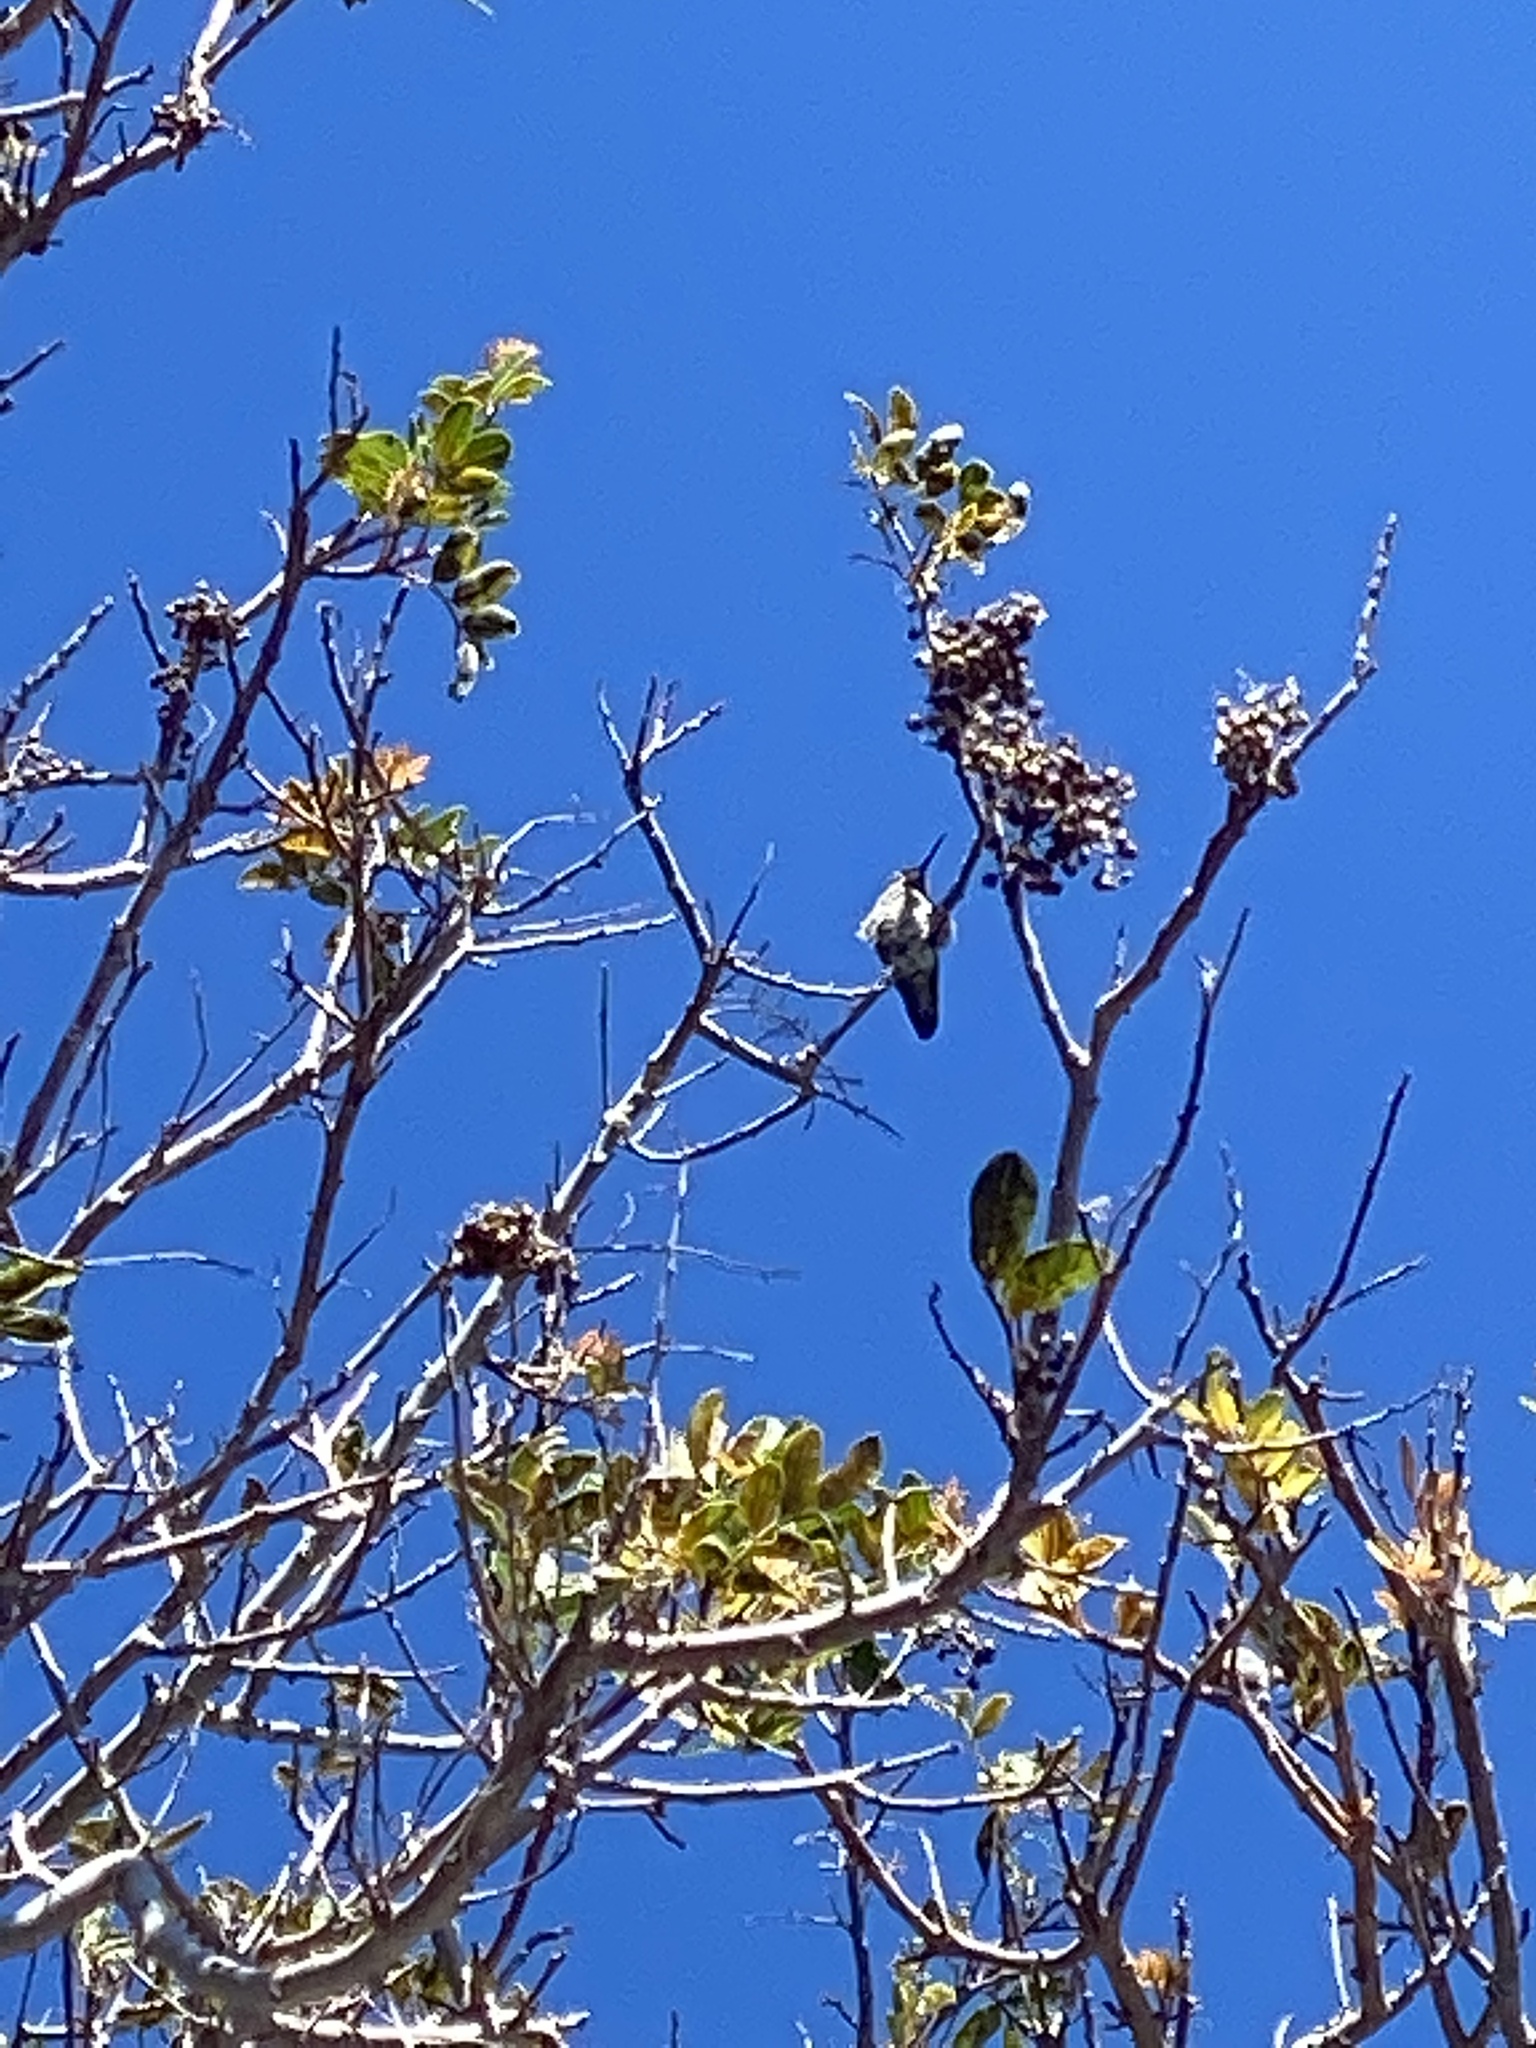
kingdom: Animalia
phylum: Chordata
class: Aves
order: Apodiformes
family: Trochilidae
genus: Calypte
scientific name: Calypte anna
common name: Anna's hummingbird
